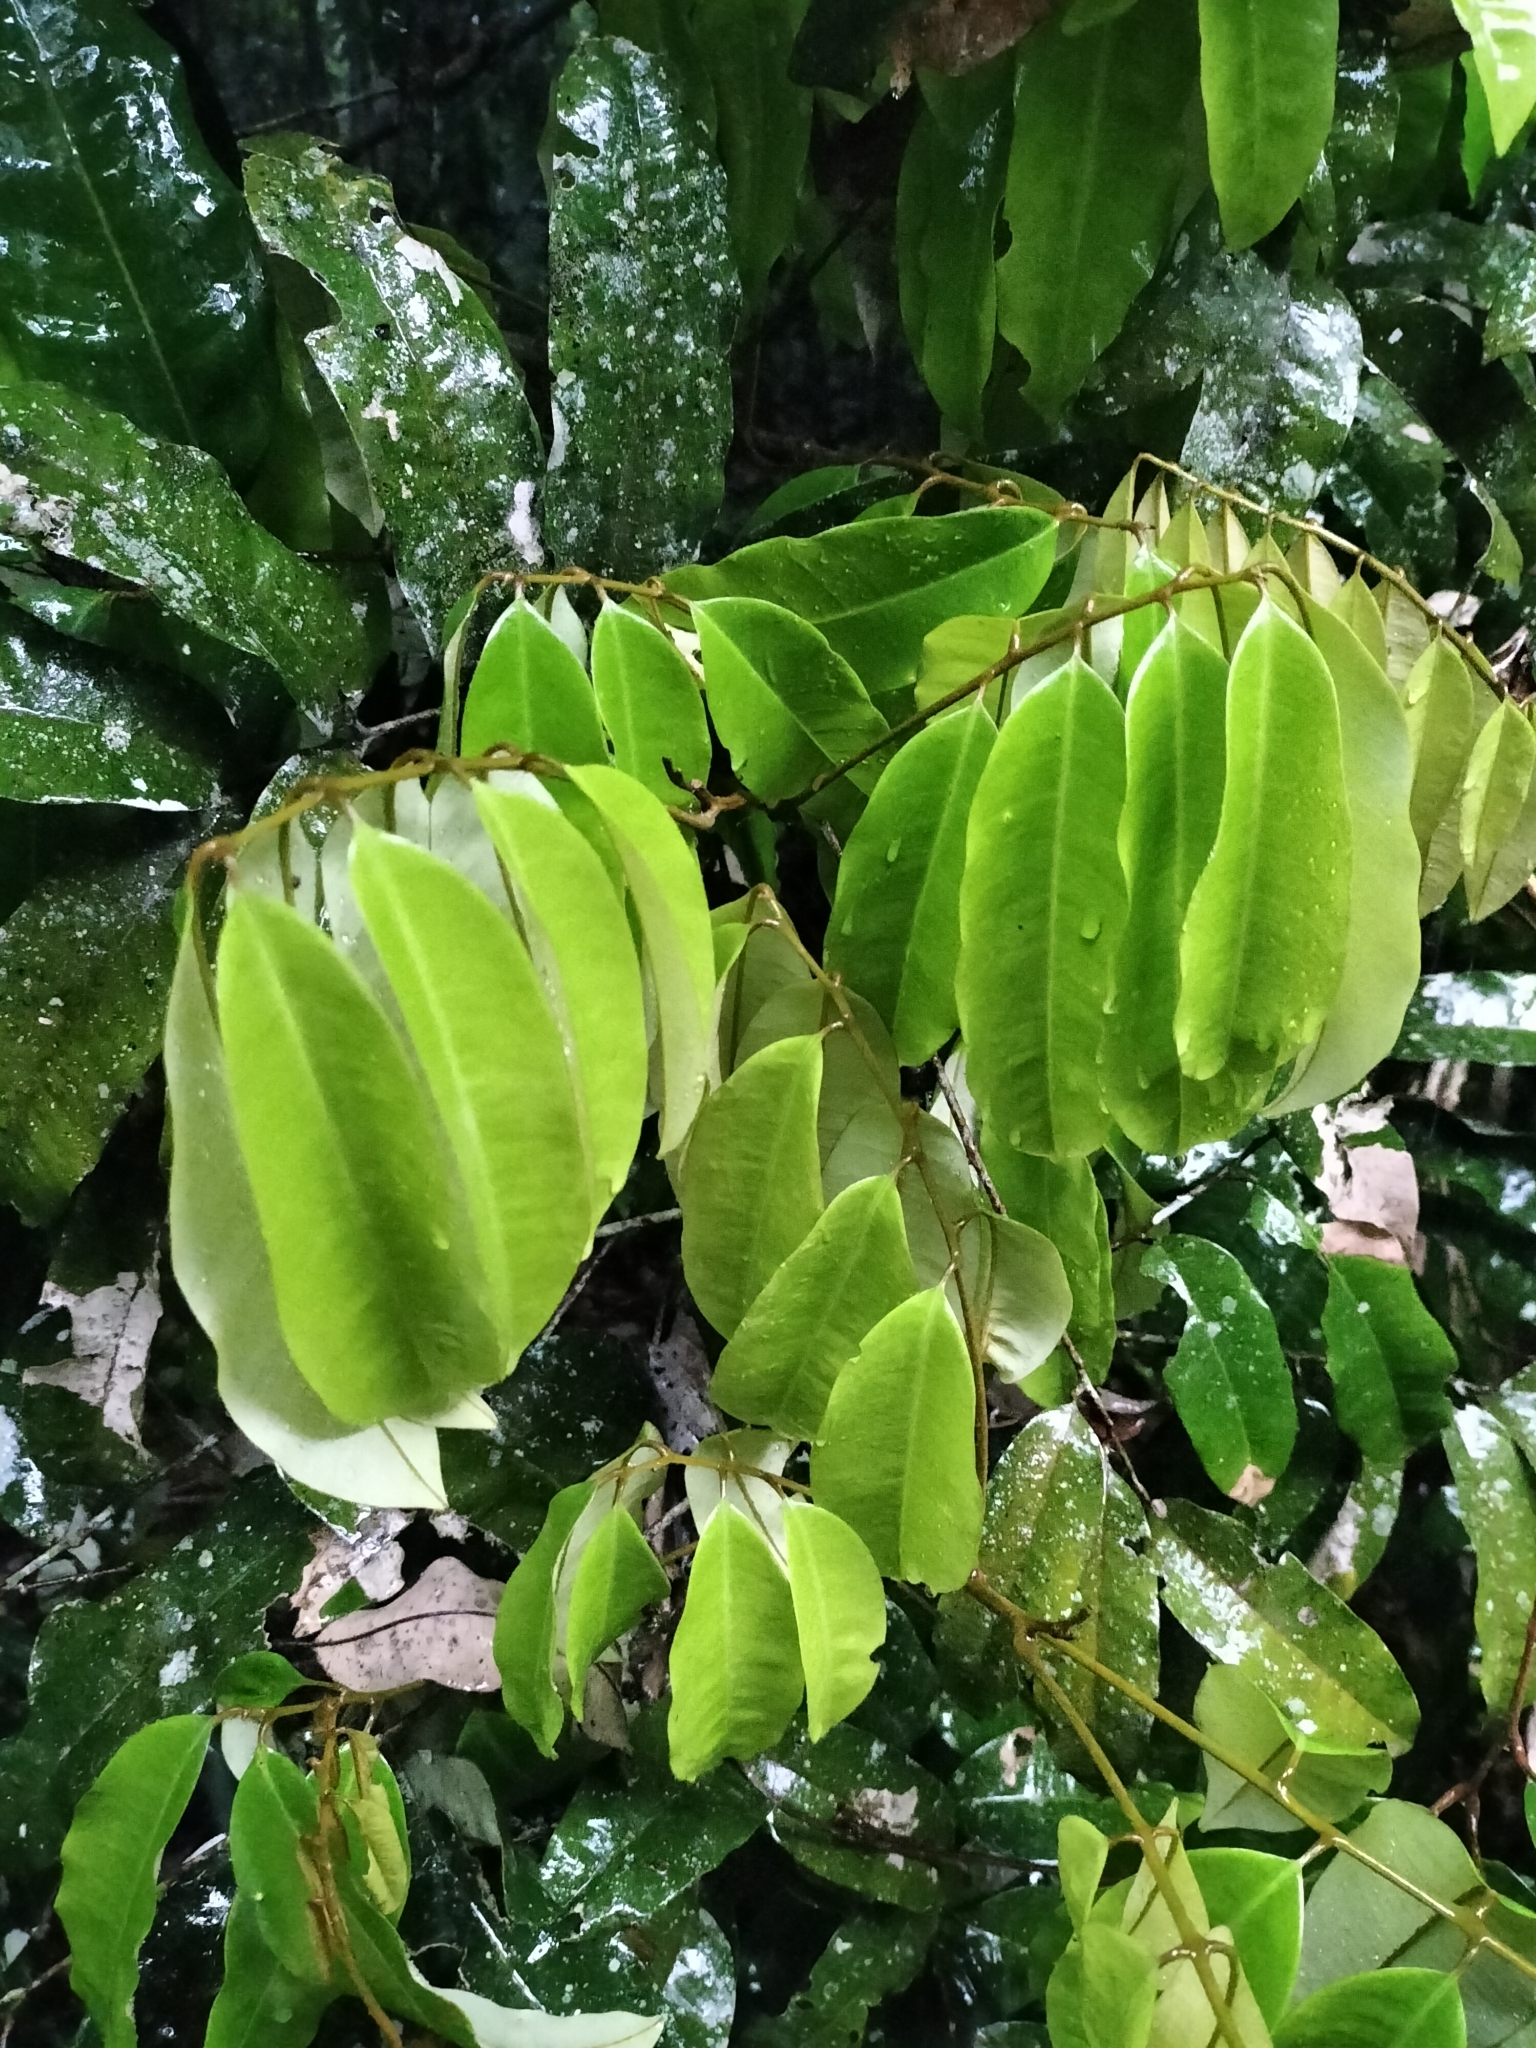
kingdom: Plantae
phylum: Tracheophyta
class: Magnoliopsida
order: Sapindales
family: Sapindaceae
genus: Castanospora
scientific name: Castanospora alphandii
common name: Brown-tamarind
